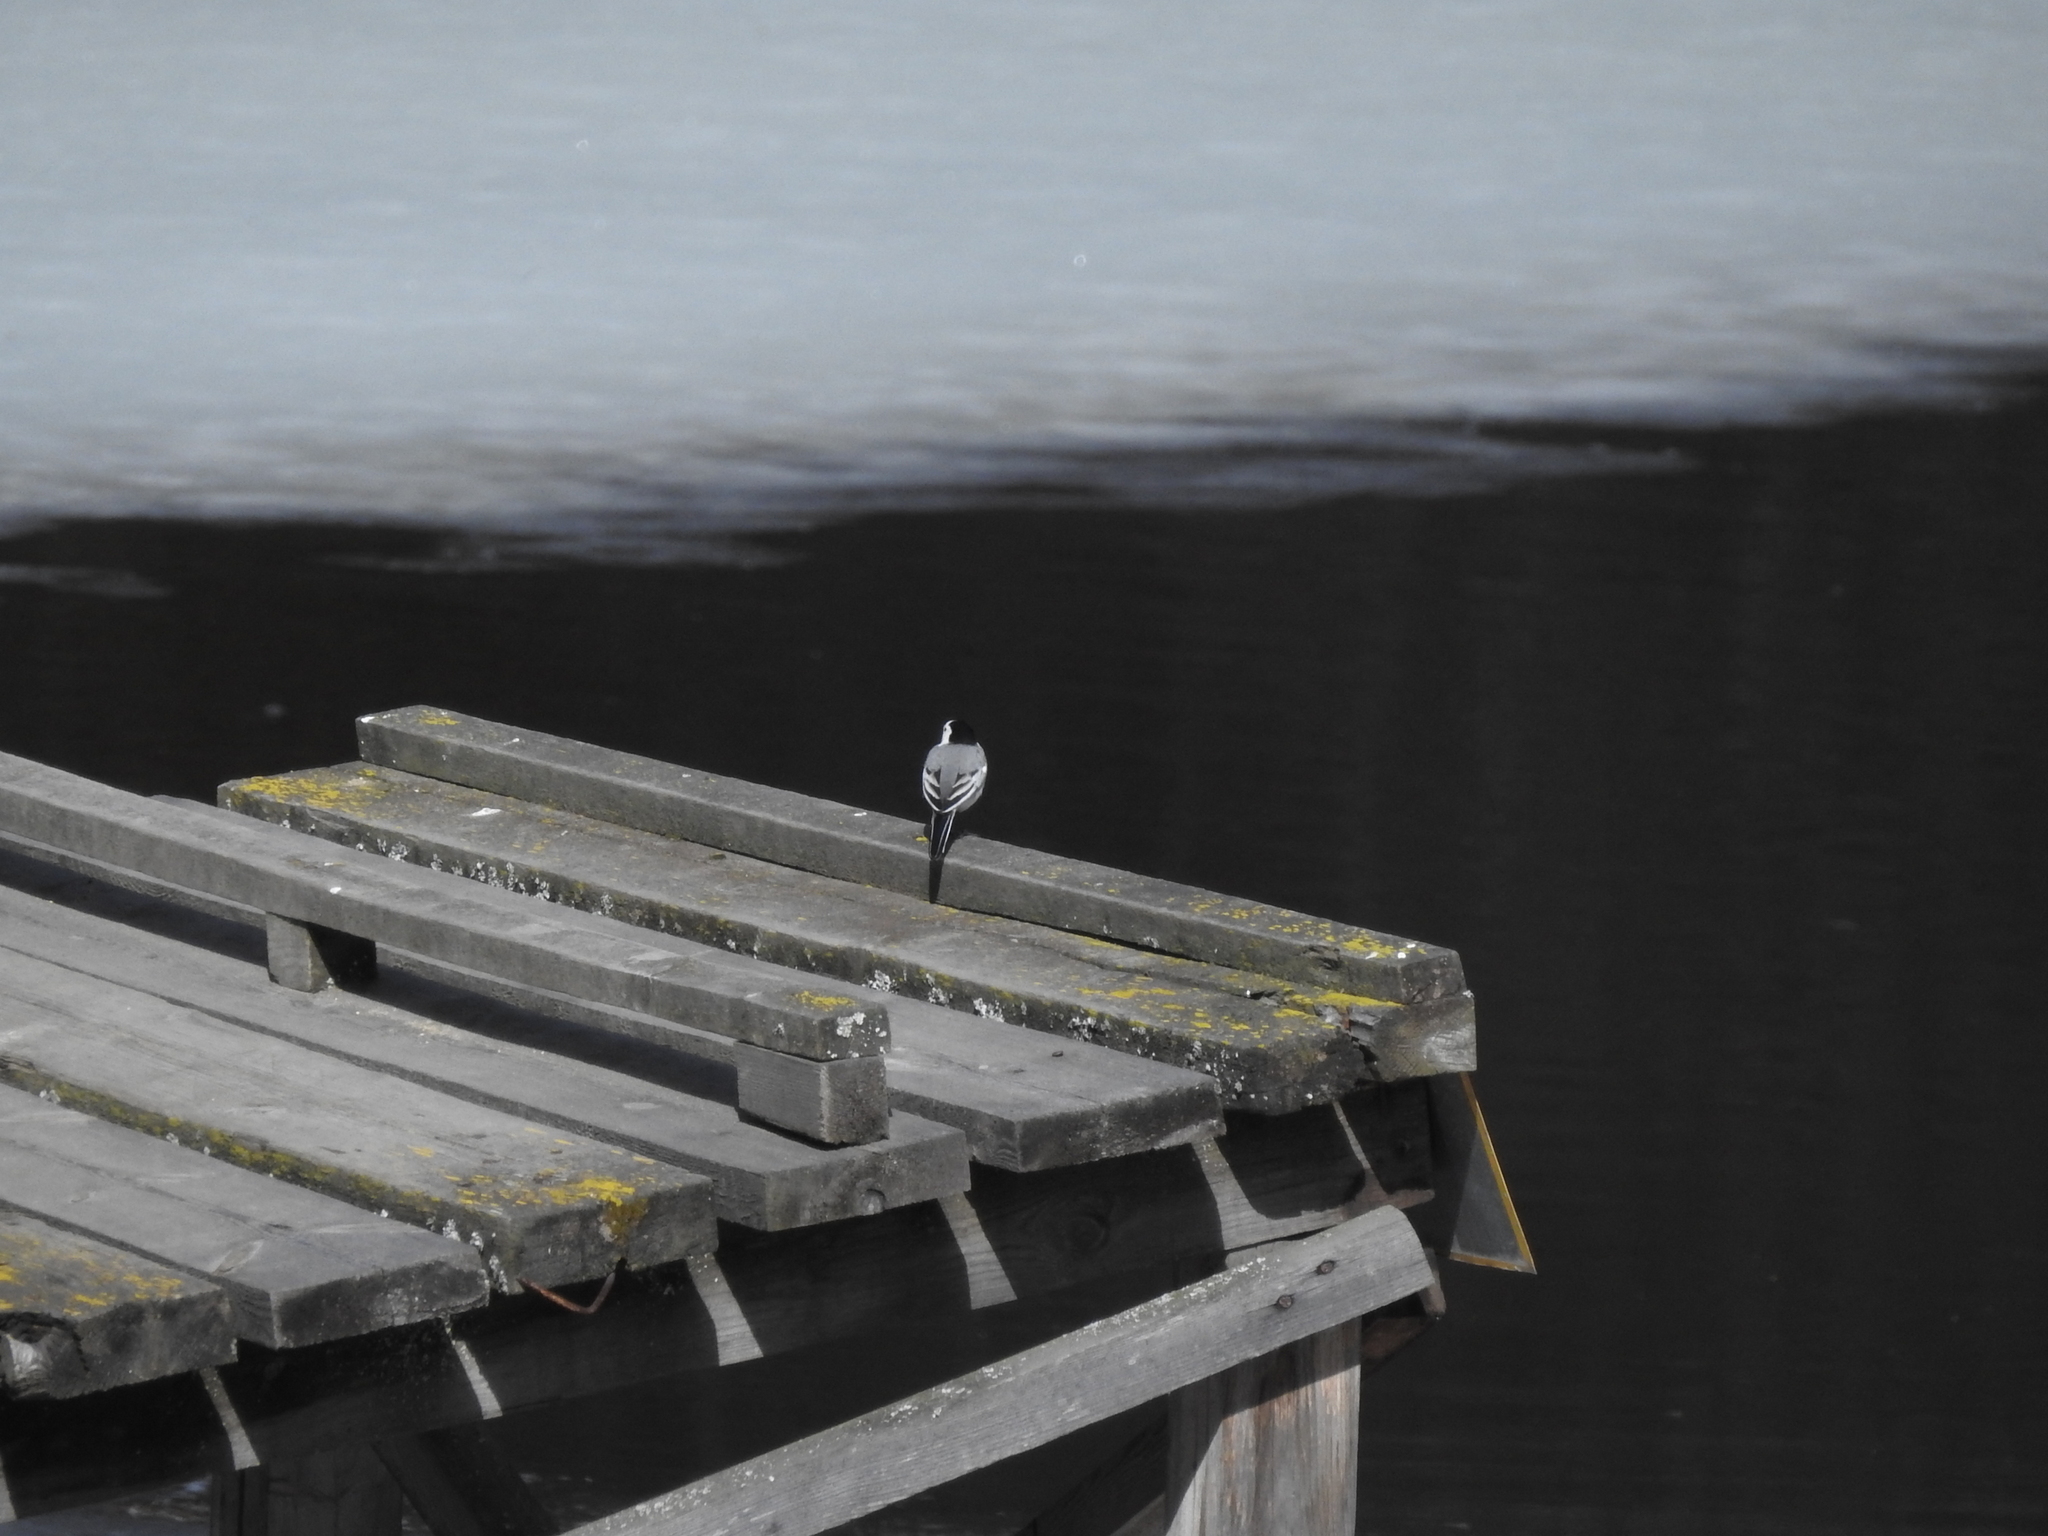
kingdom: Animalia
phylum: Chordata
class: Aves
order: Passeriformes
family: Motacillidae
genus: Motacilla
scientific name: Motacilla alba
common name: White wagtail
